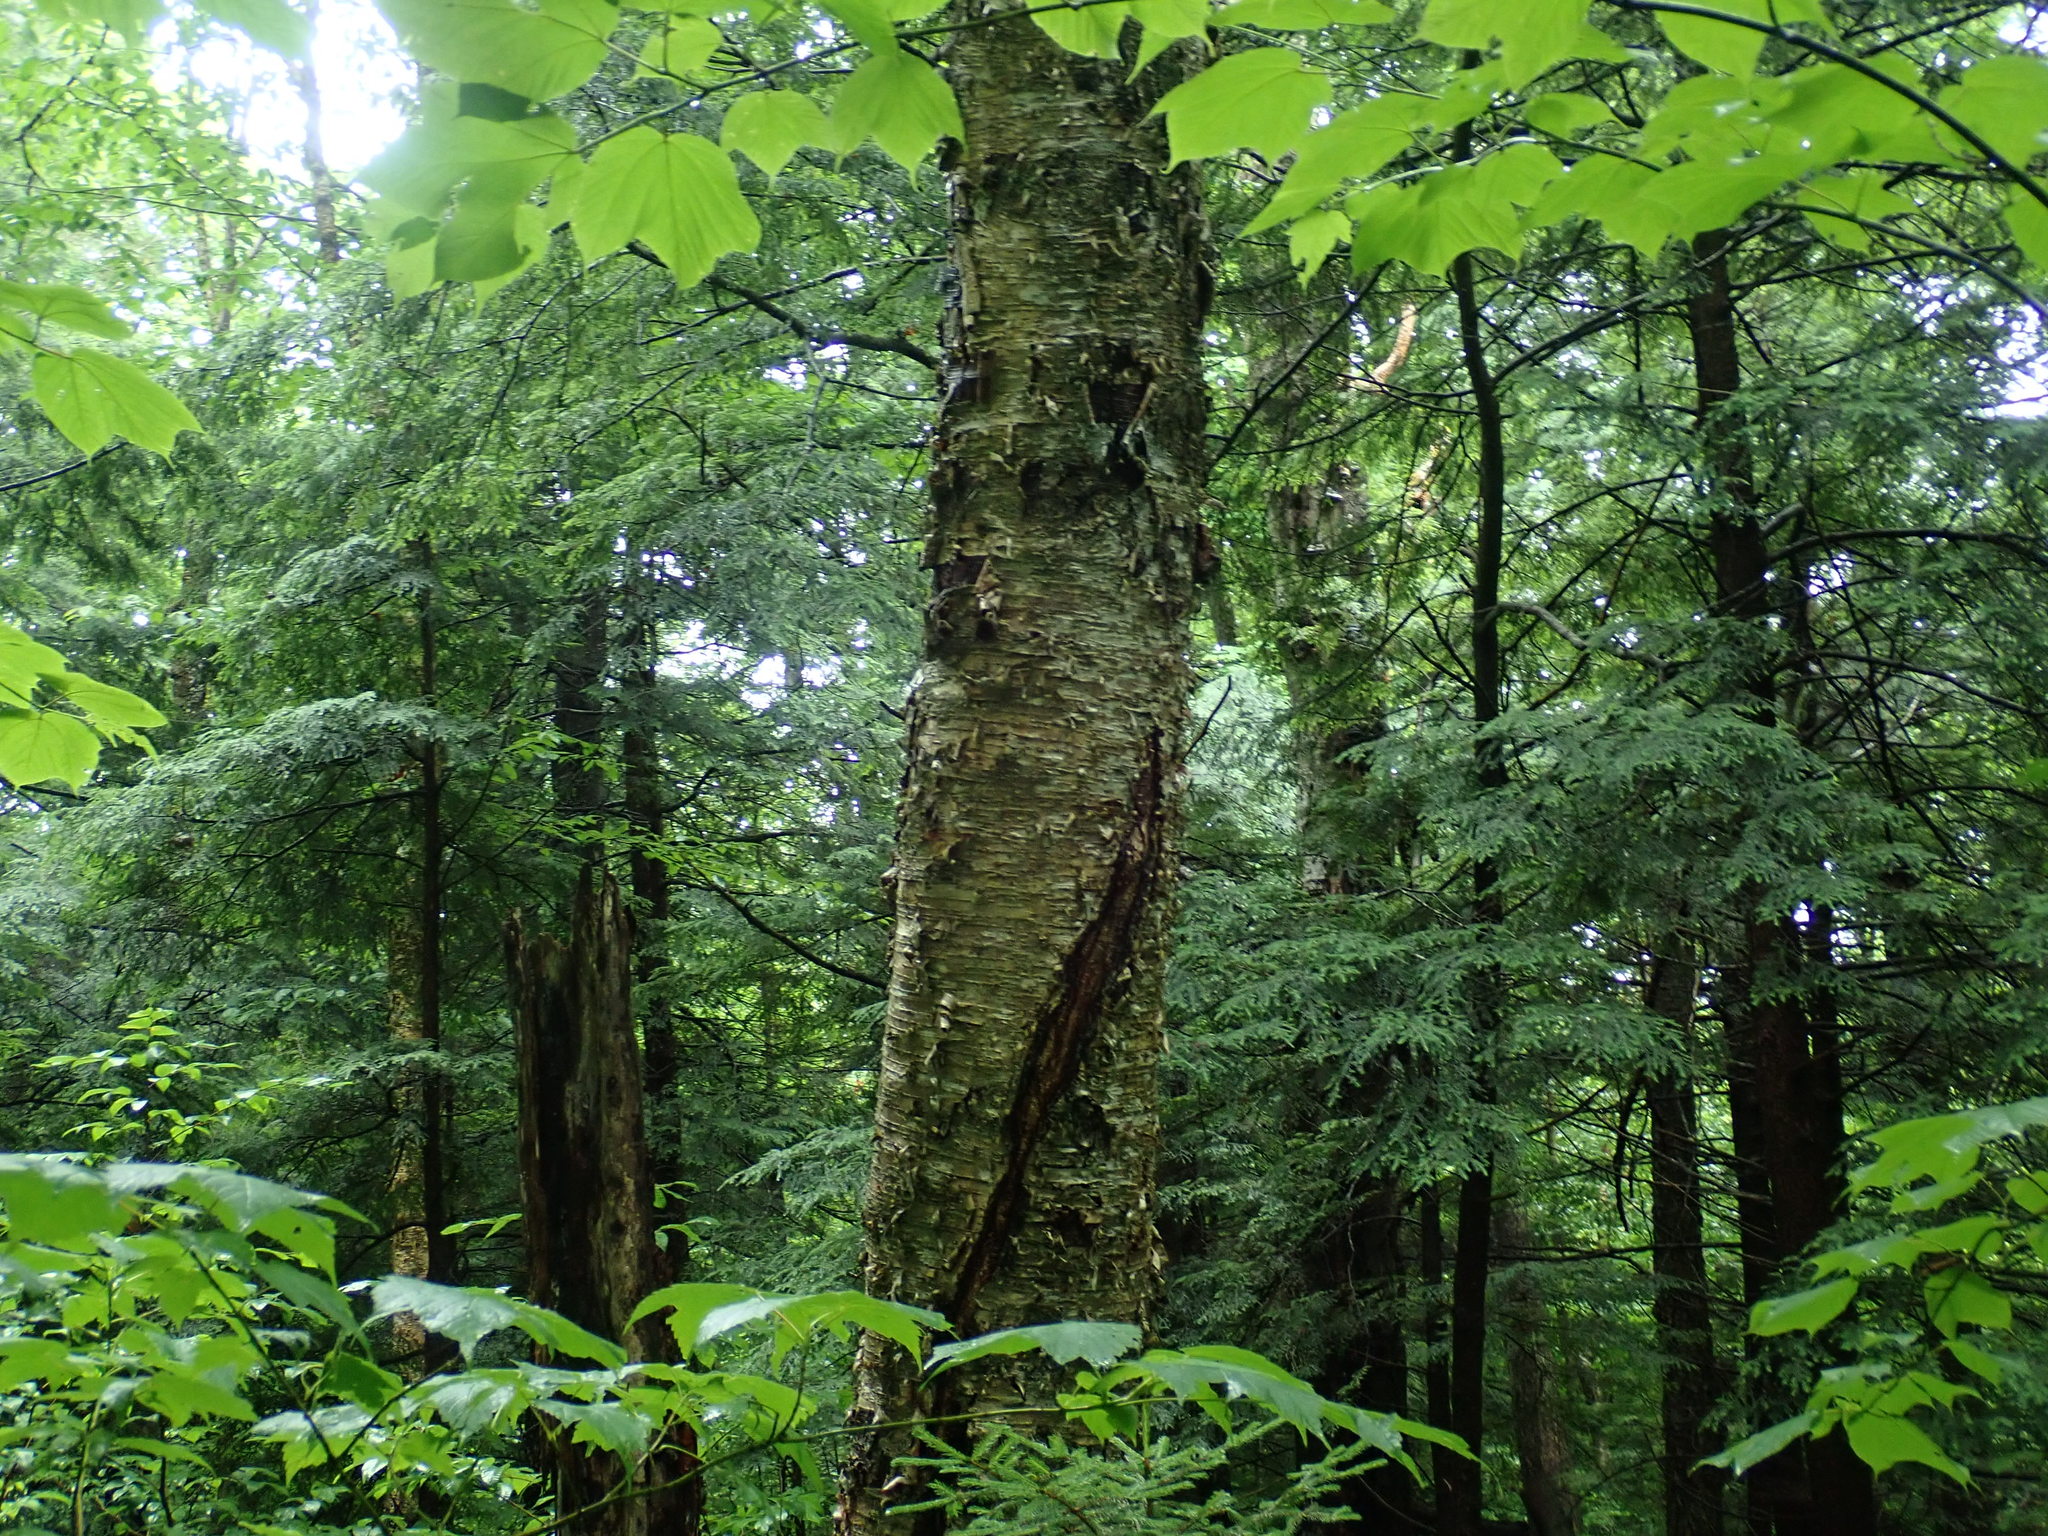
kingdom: Plantae
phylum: Tracheophyta
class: Magnoliopsida
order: Fagales
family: Betulaceae
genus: Betula
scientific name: Betula alleghaniensis
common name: Yellow birch
